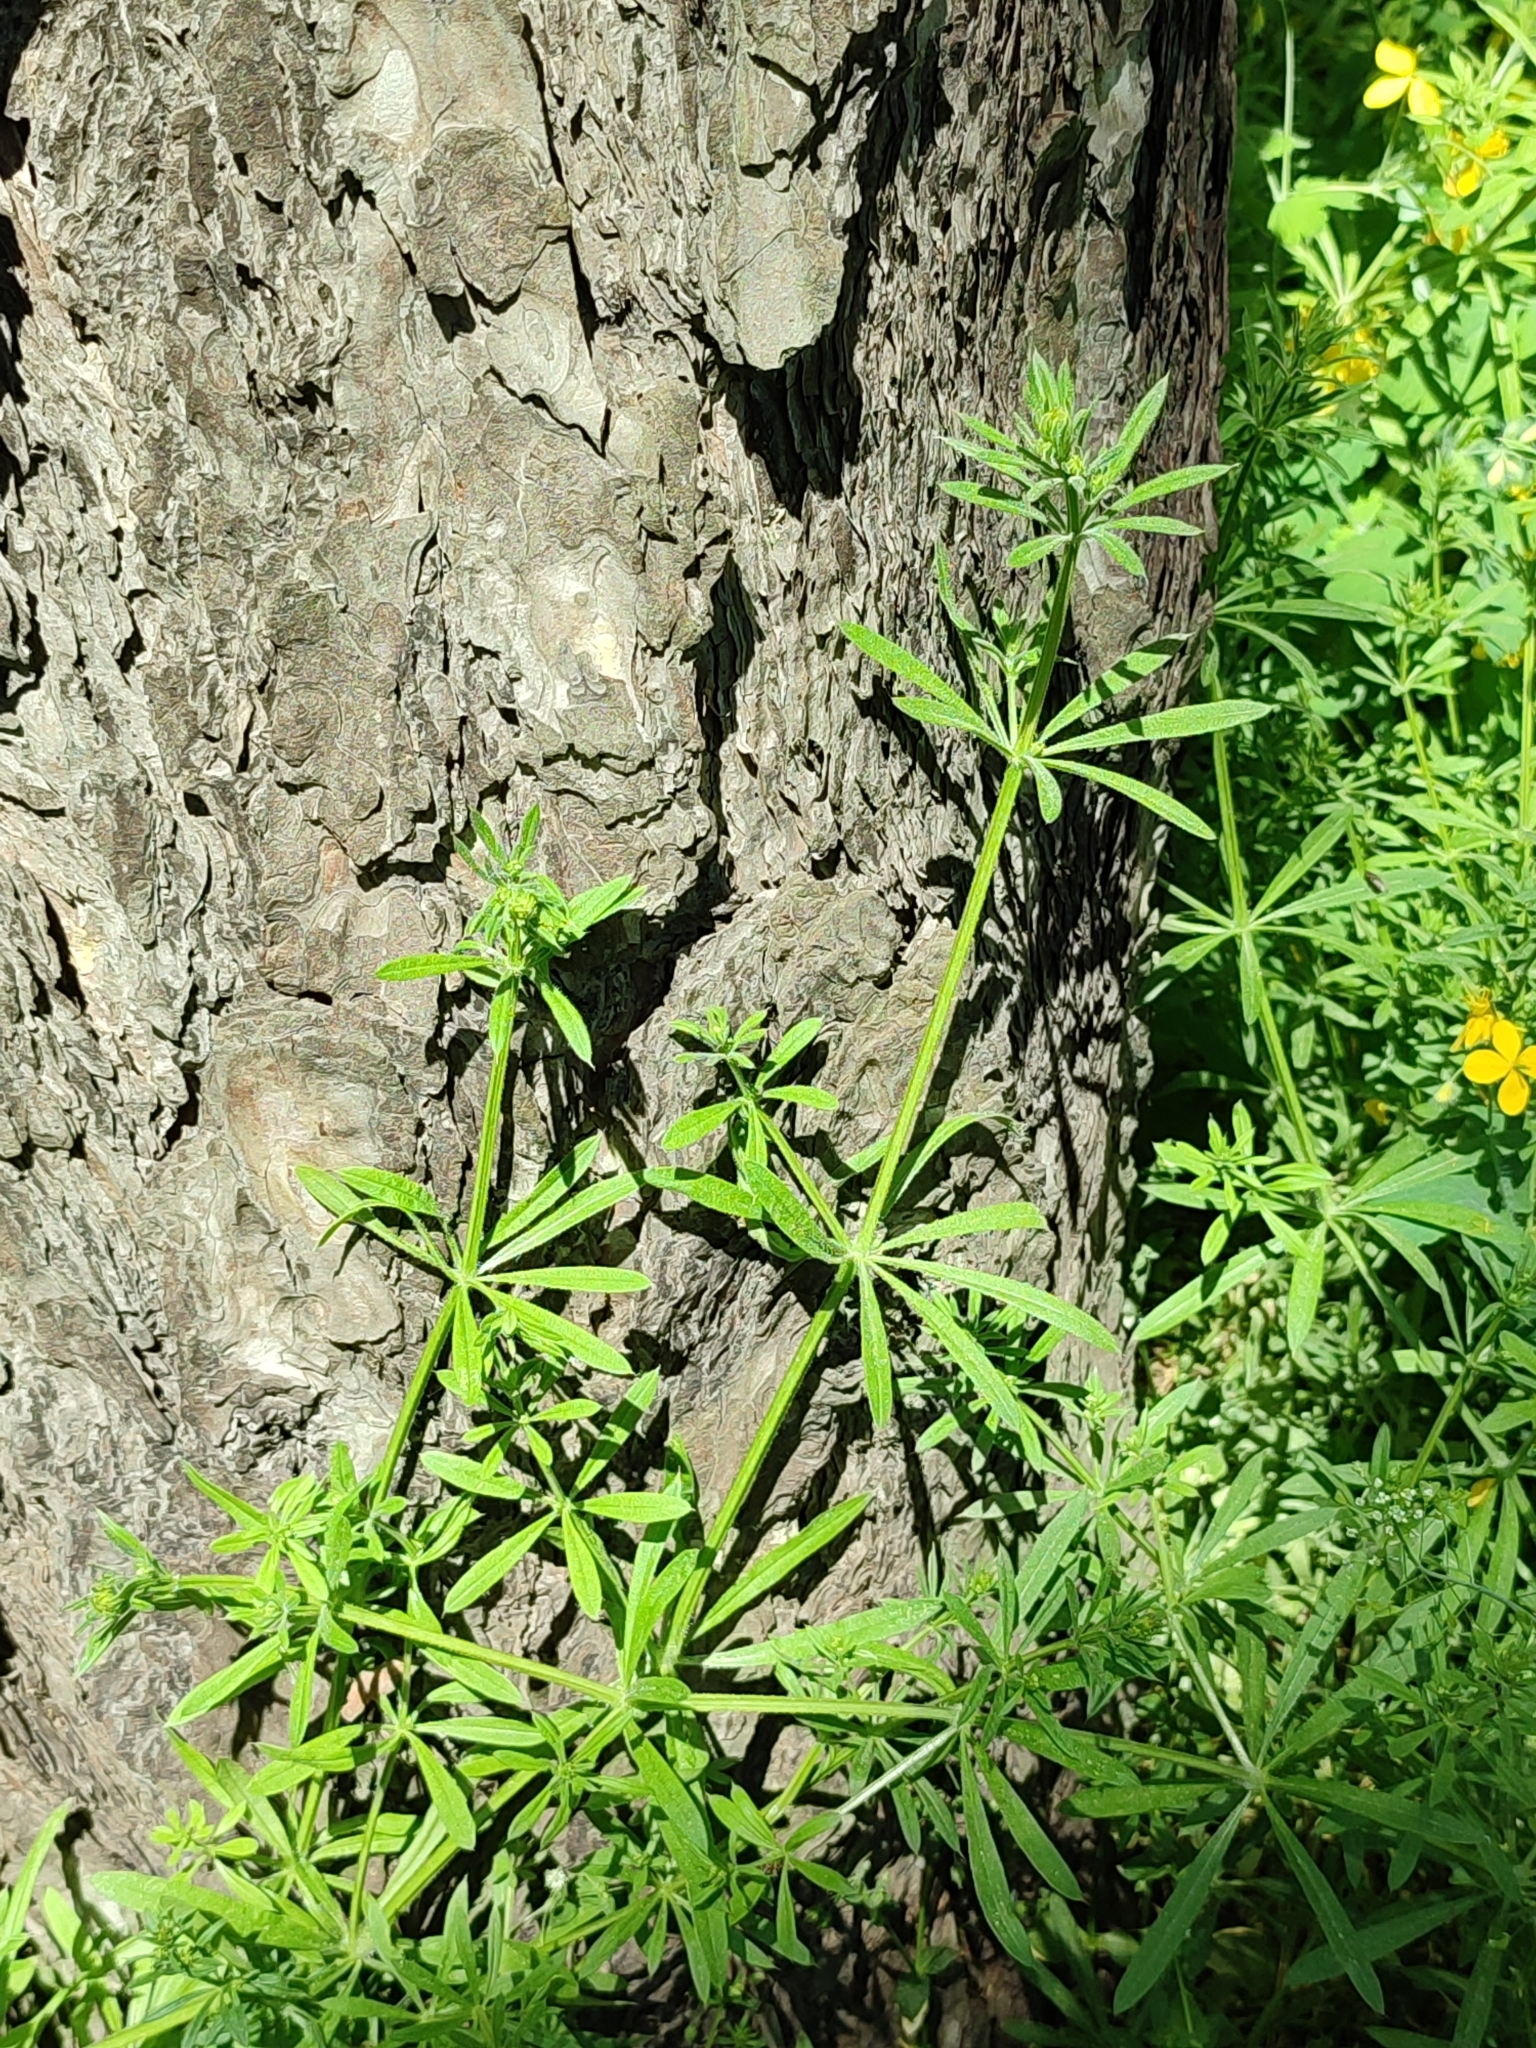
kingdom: Plantae
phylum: Tracheophyta
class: Magnoliopsida
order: Gentianales
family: Rubiaceae
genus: Galium
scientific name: Galium aparine
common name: Cleavers
